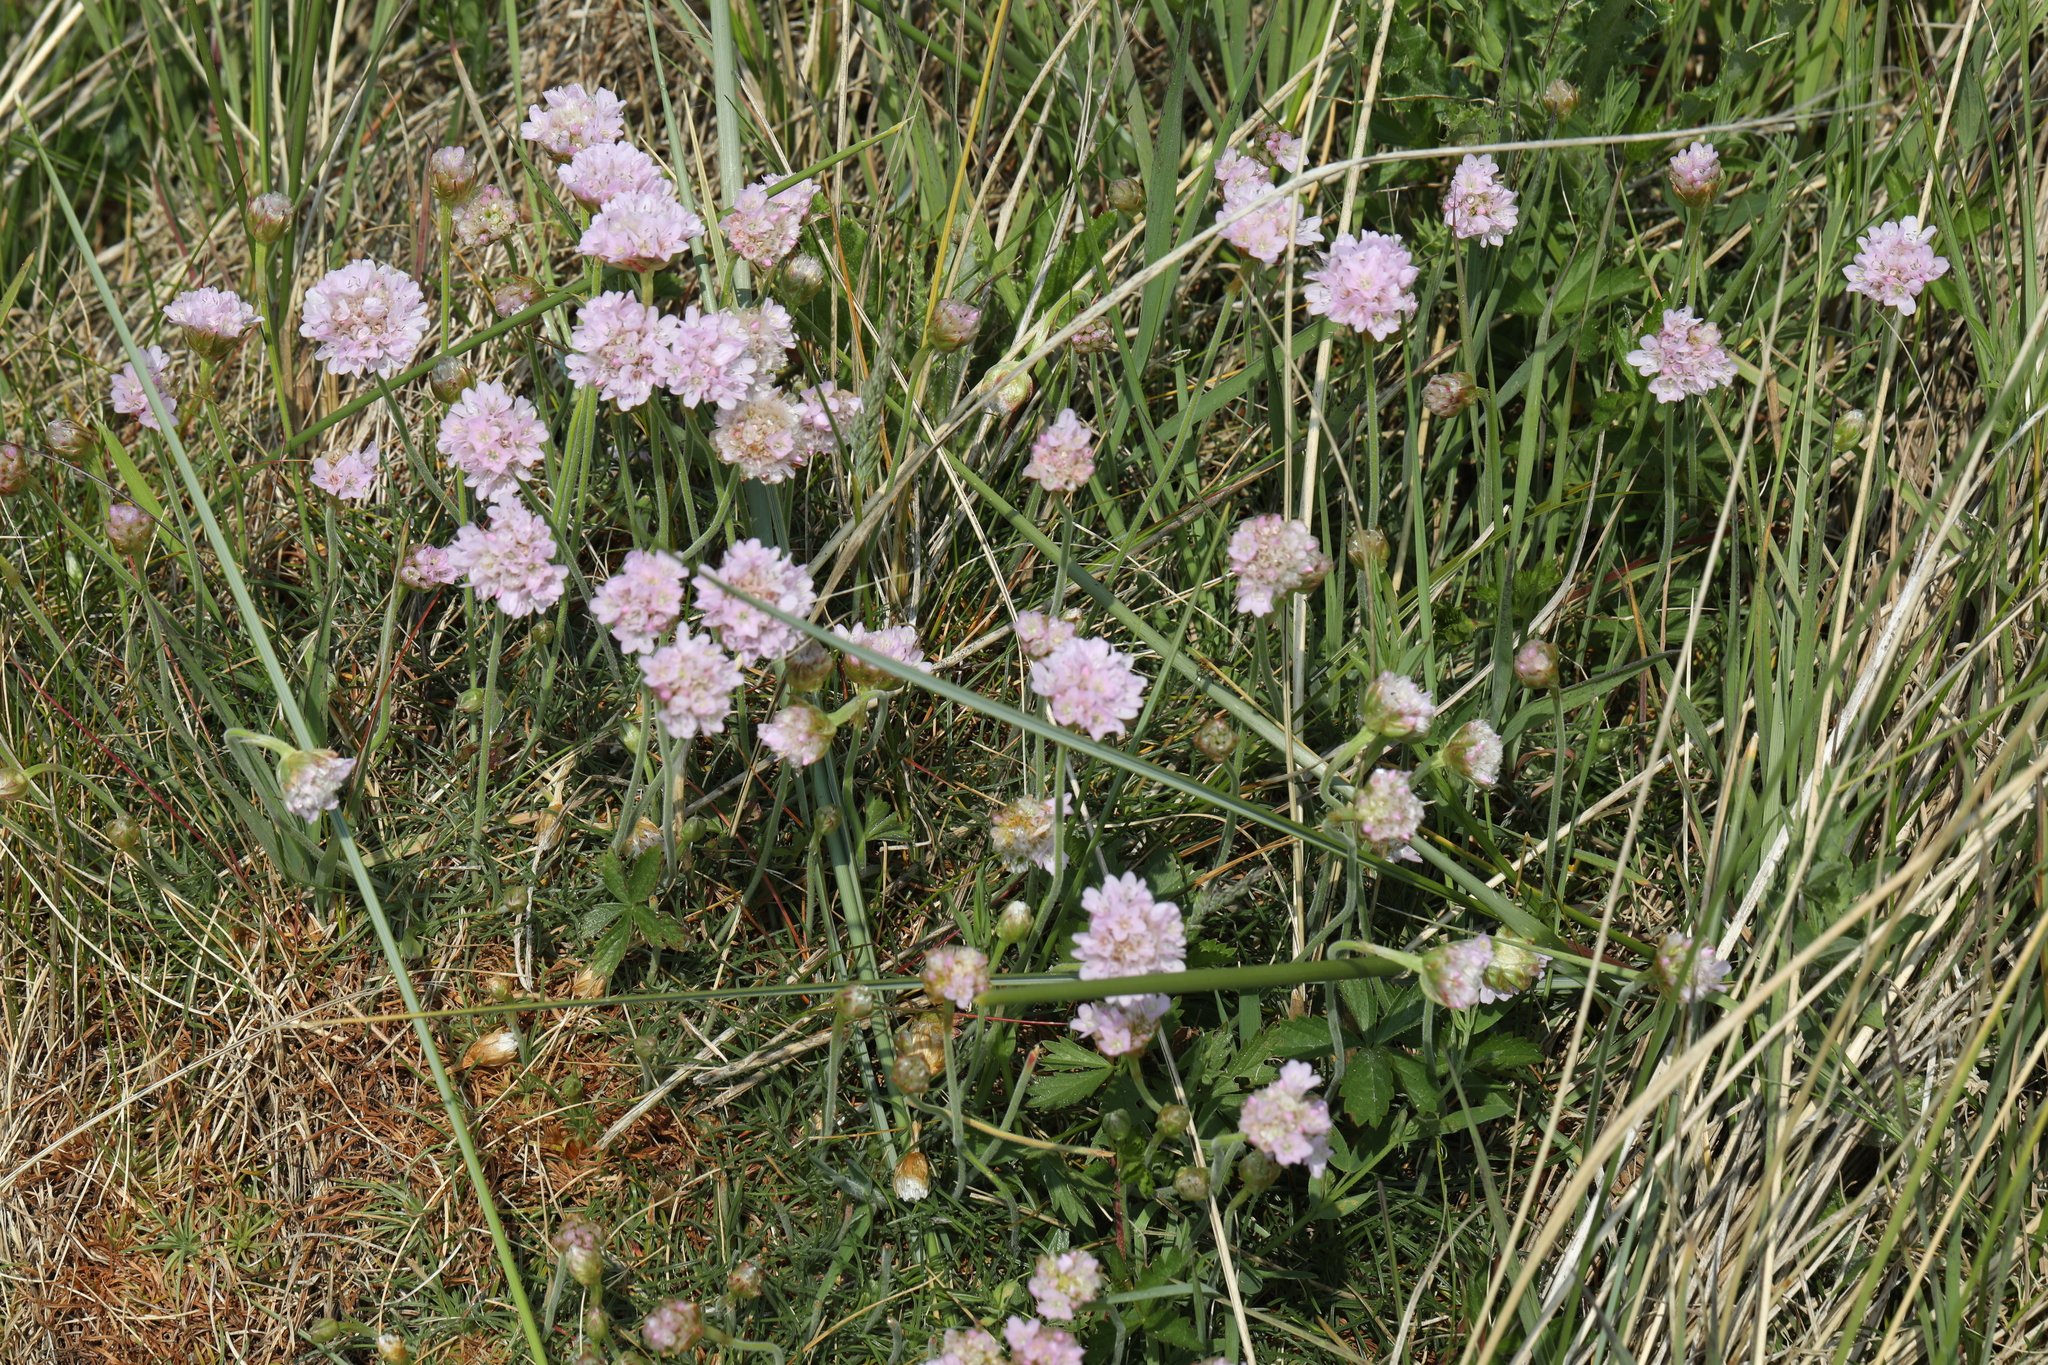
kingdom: Plantae
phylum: Tracheophyta
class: Magnoliopsida
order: Caryophyllales
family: Plumbaginaceae
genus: Armeria
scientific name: Armeria maritima
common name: Thrift
